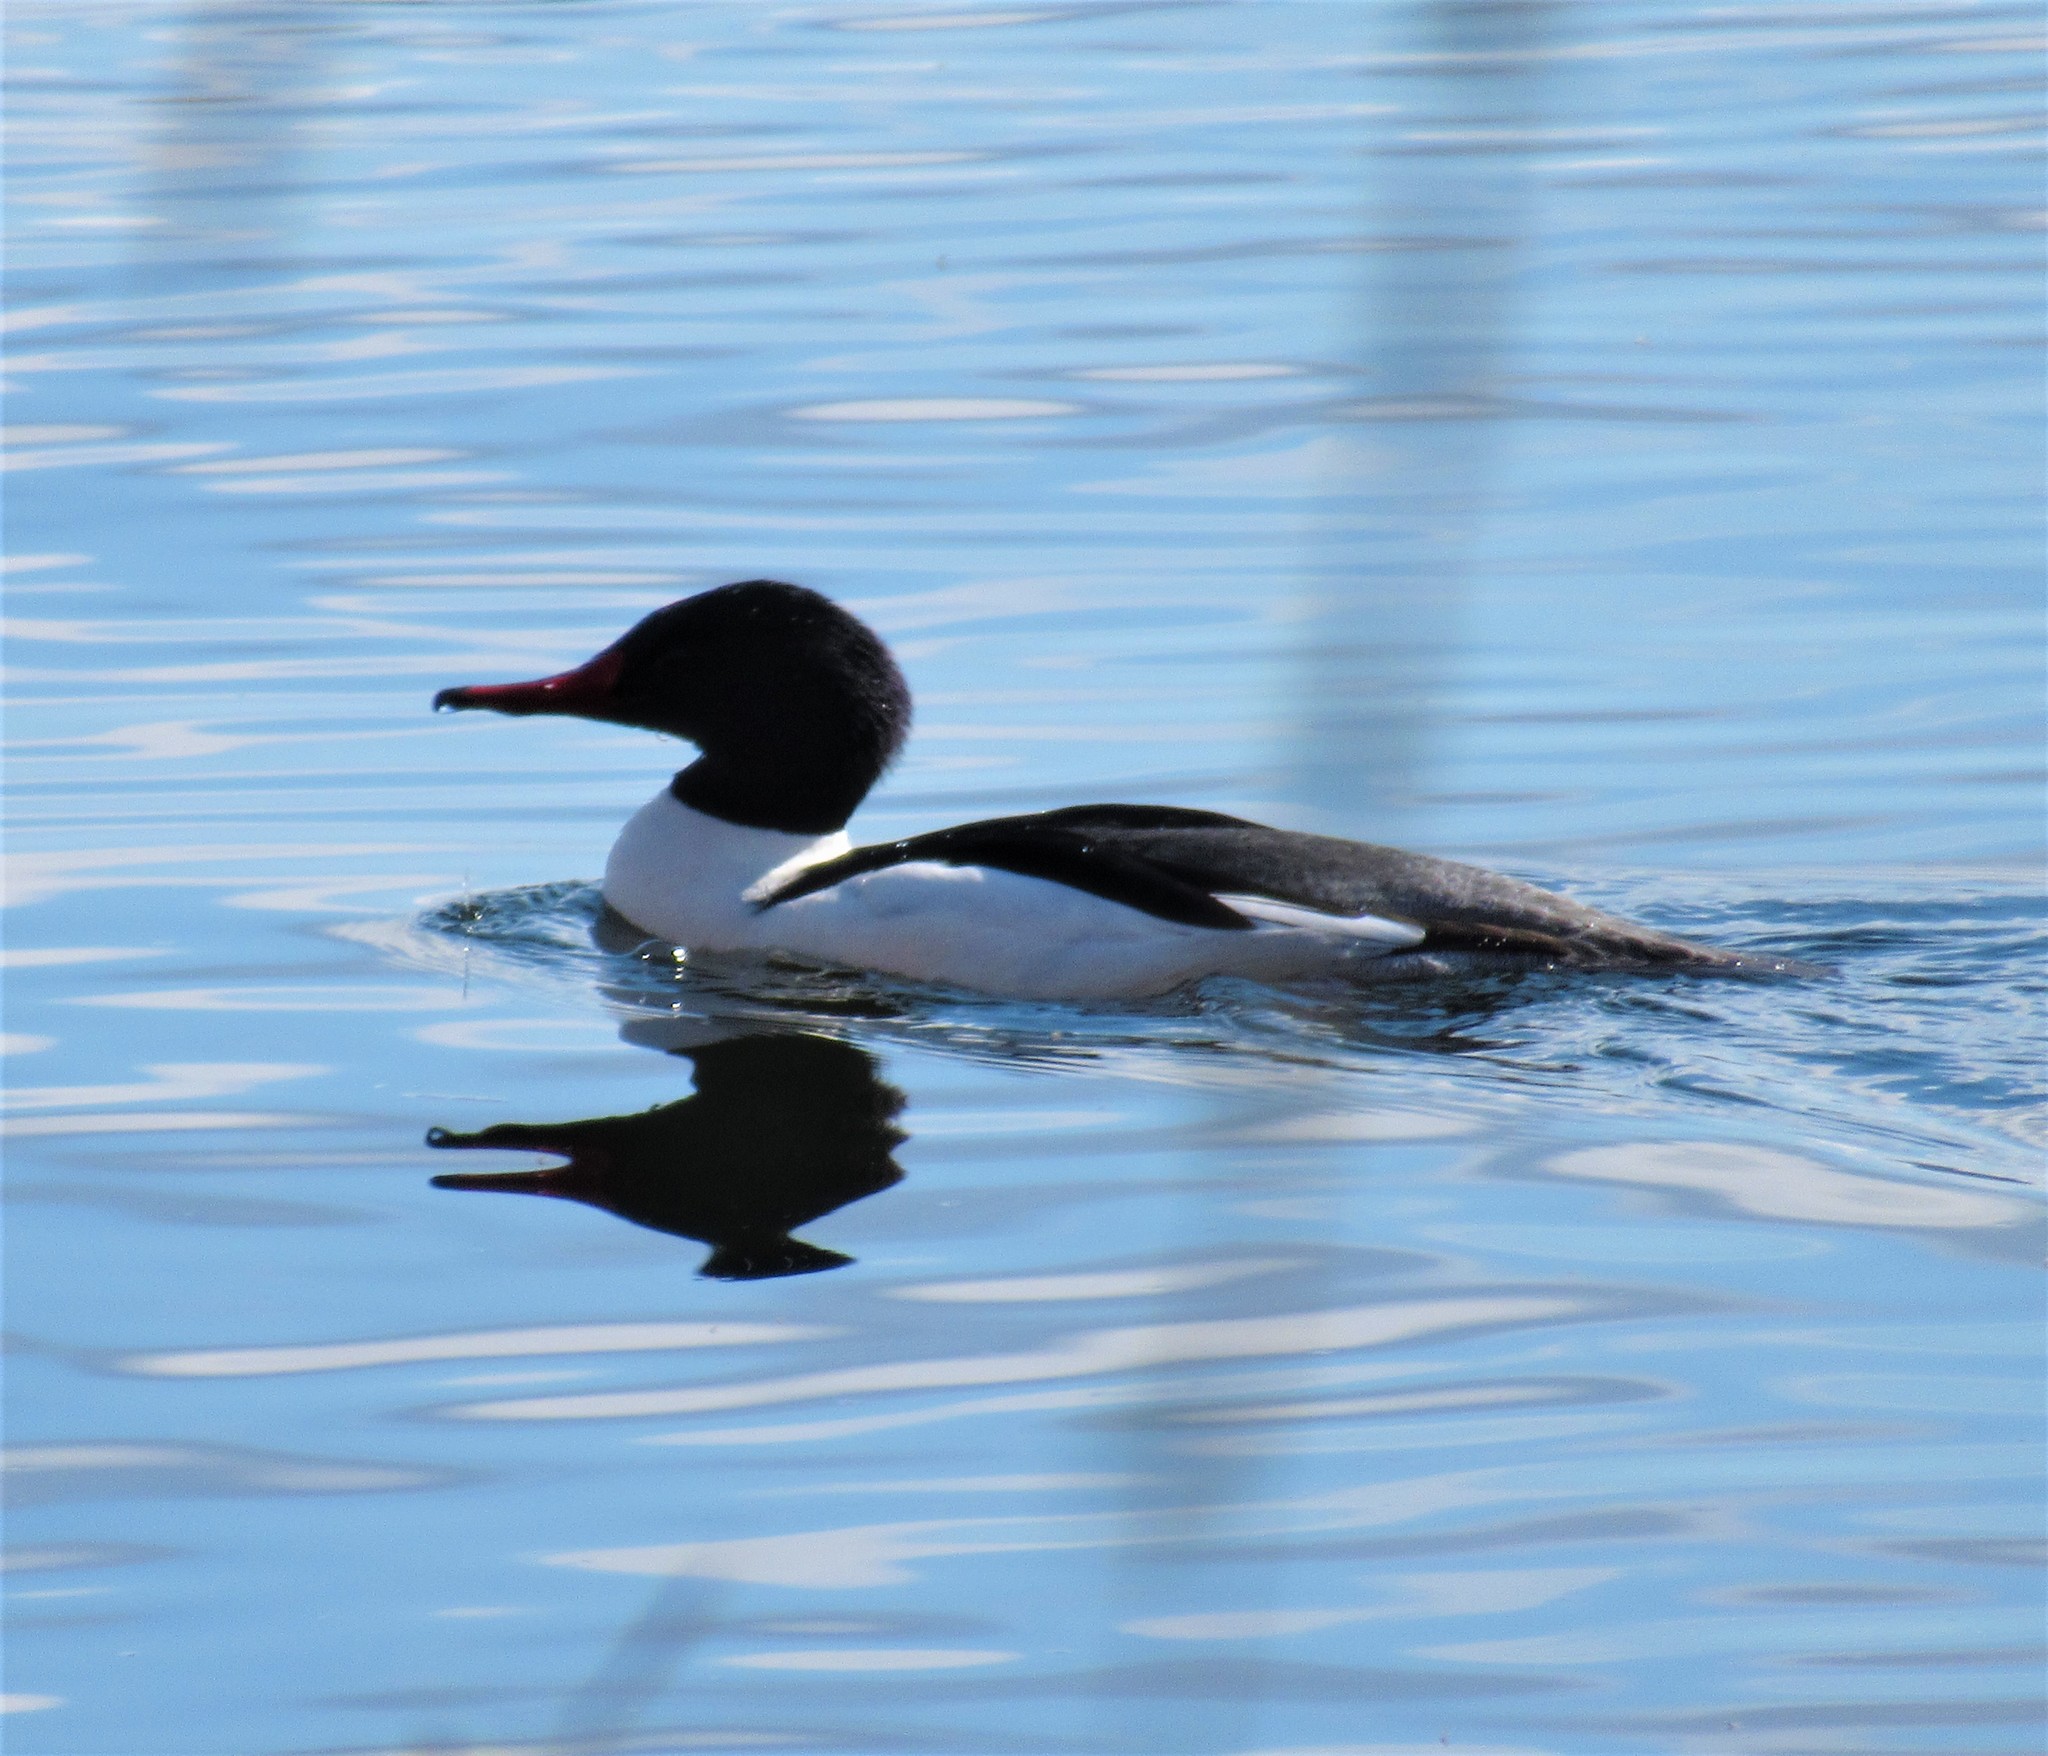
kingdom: Animalia
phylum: Chordata
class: Aves
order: Anseriformes
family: Anatidae
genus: Mergus
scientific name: Mergus merganser
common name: Common merganser
